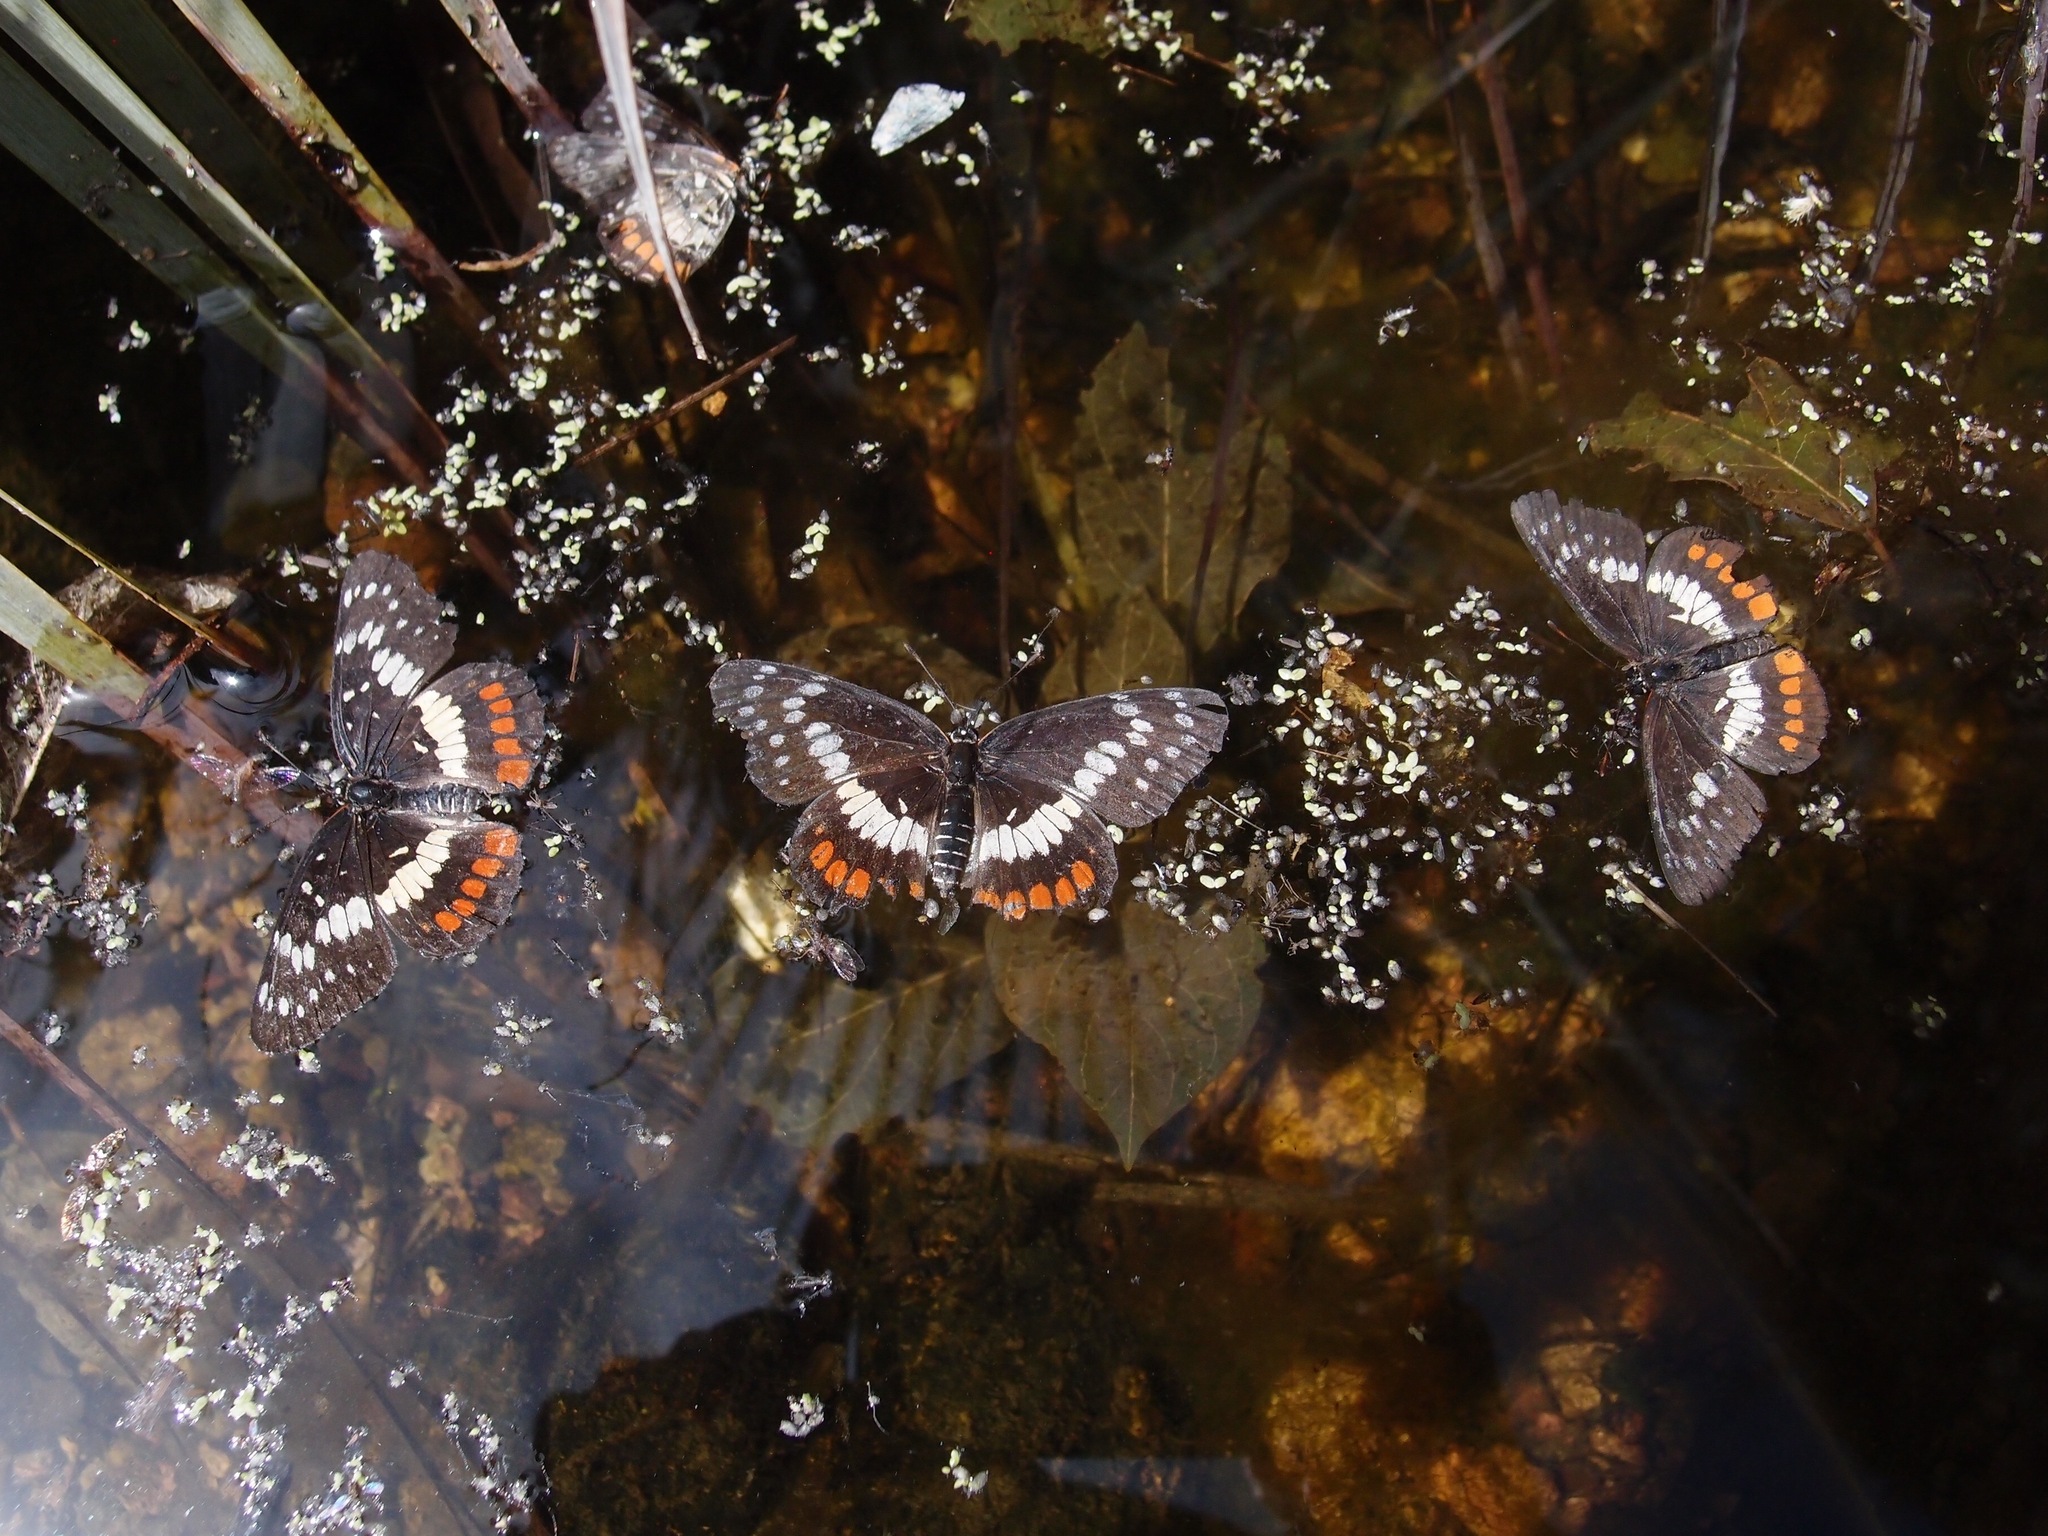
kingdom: Animalia
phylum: Arthropoda
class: Insecta
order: Lepidoptera
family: Nymphalidae
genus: Chlosyne
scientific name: Chlosyne eumeda
